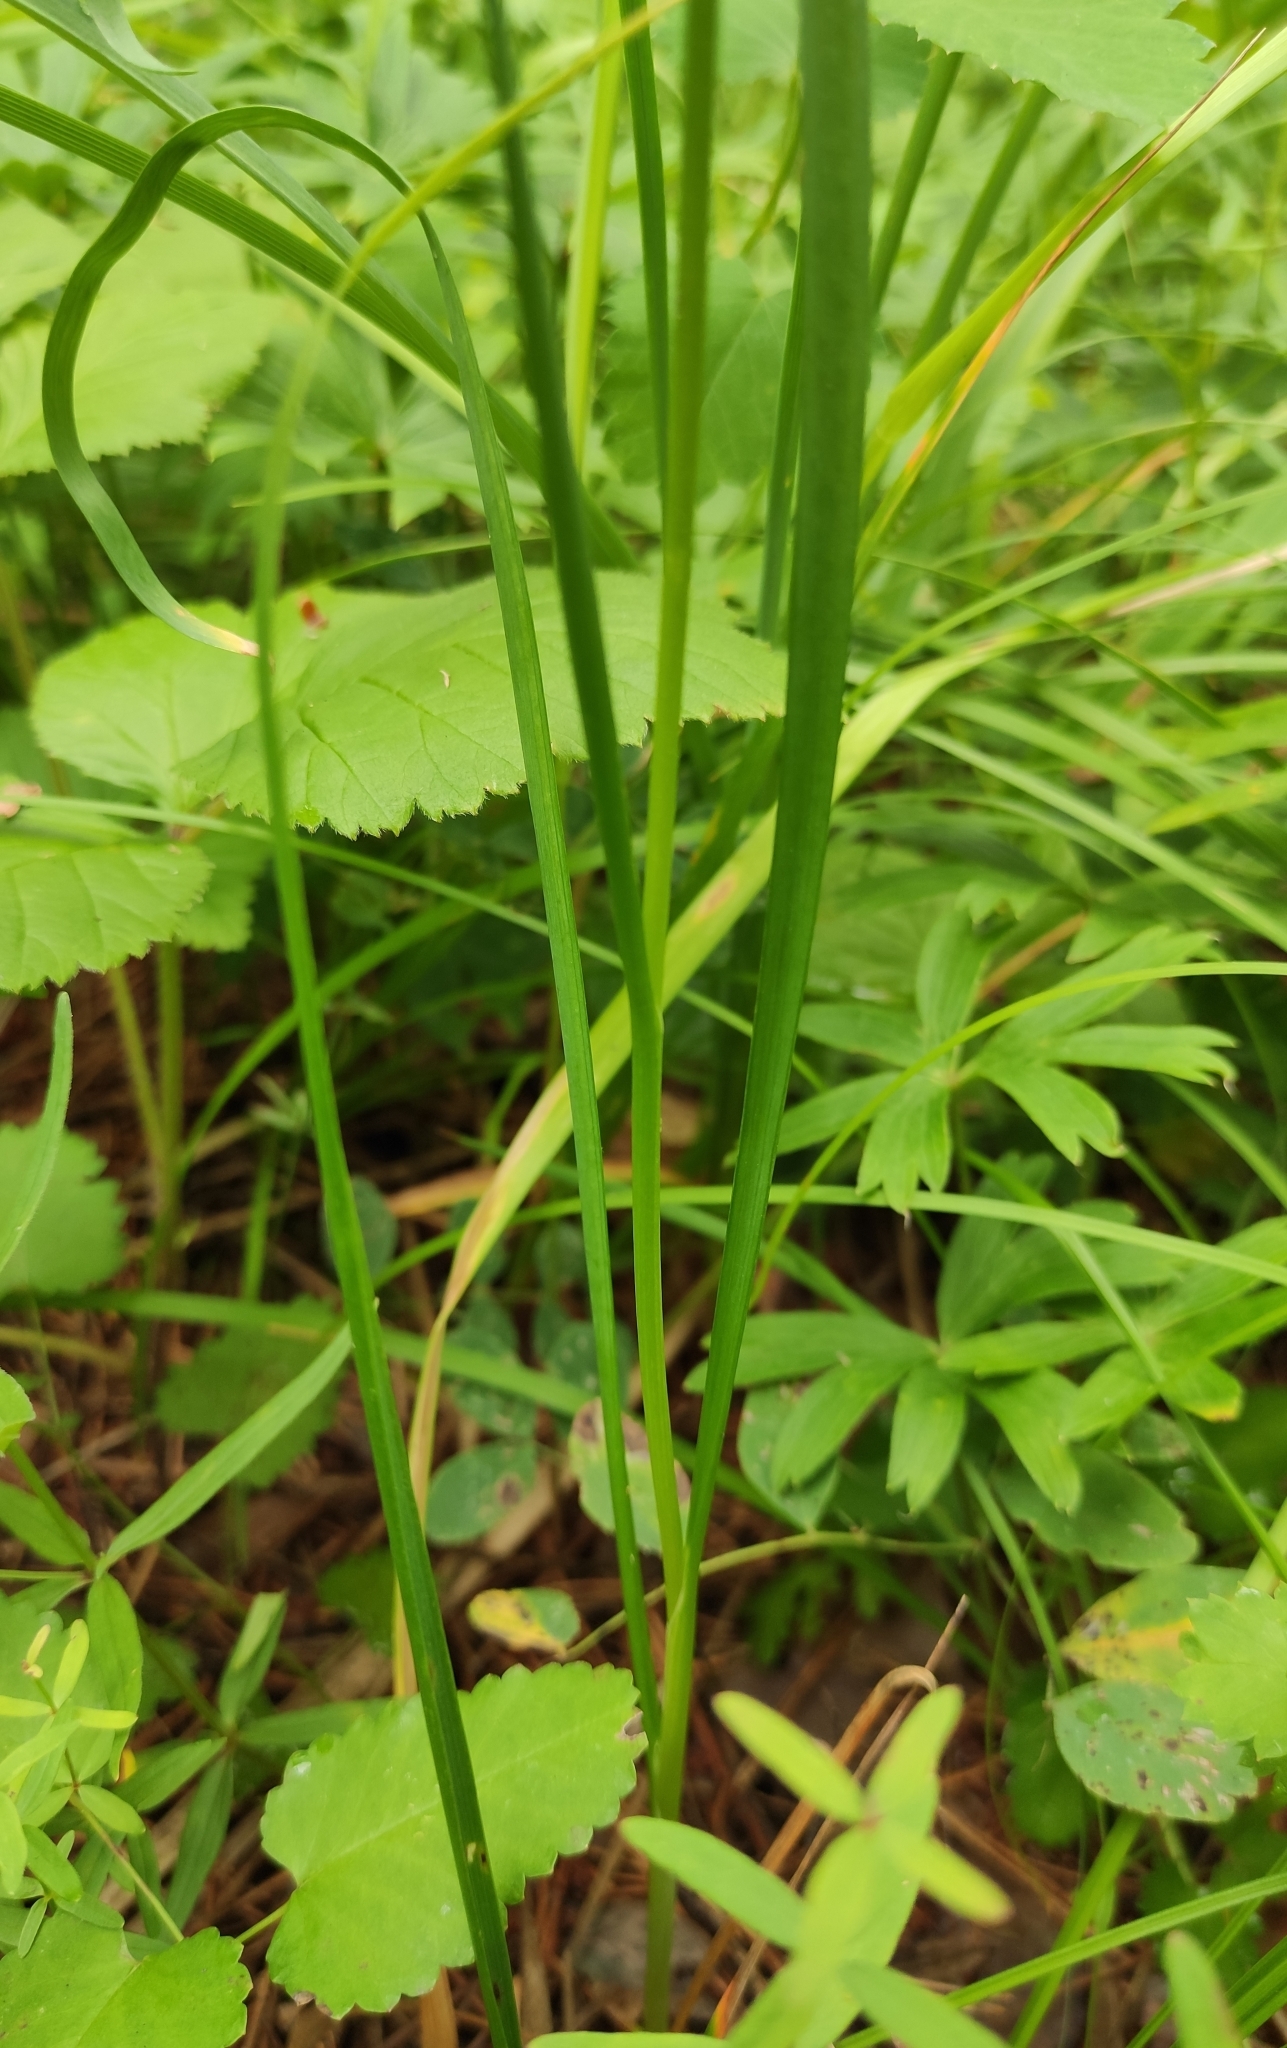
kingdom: Plantae
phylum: Tracheophyta
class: Liliopsida
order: Asparagales
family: Amaryllidaceae
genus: Allium
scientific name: Allium splendens
